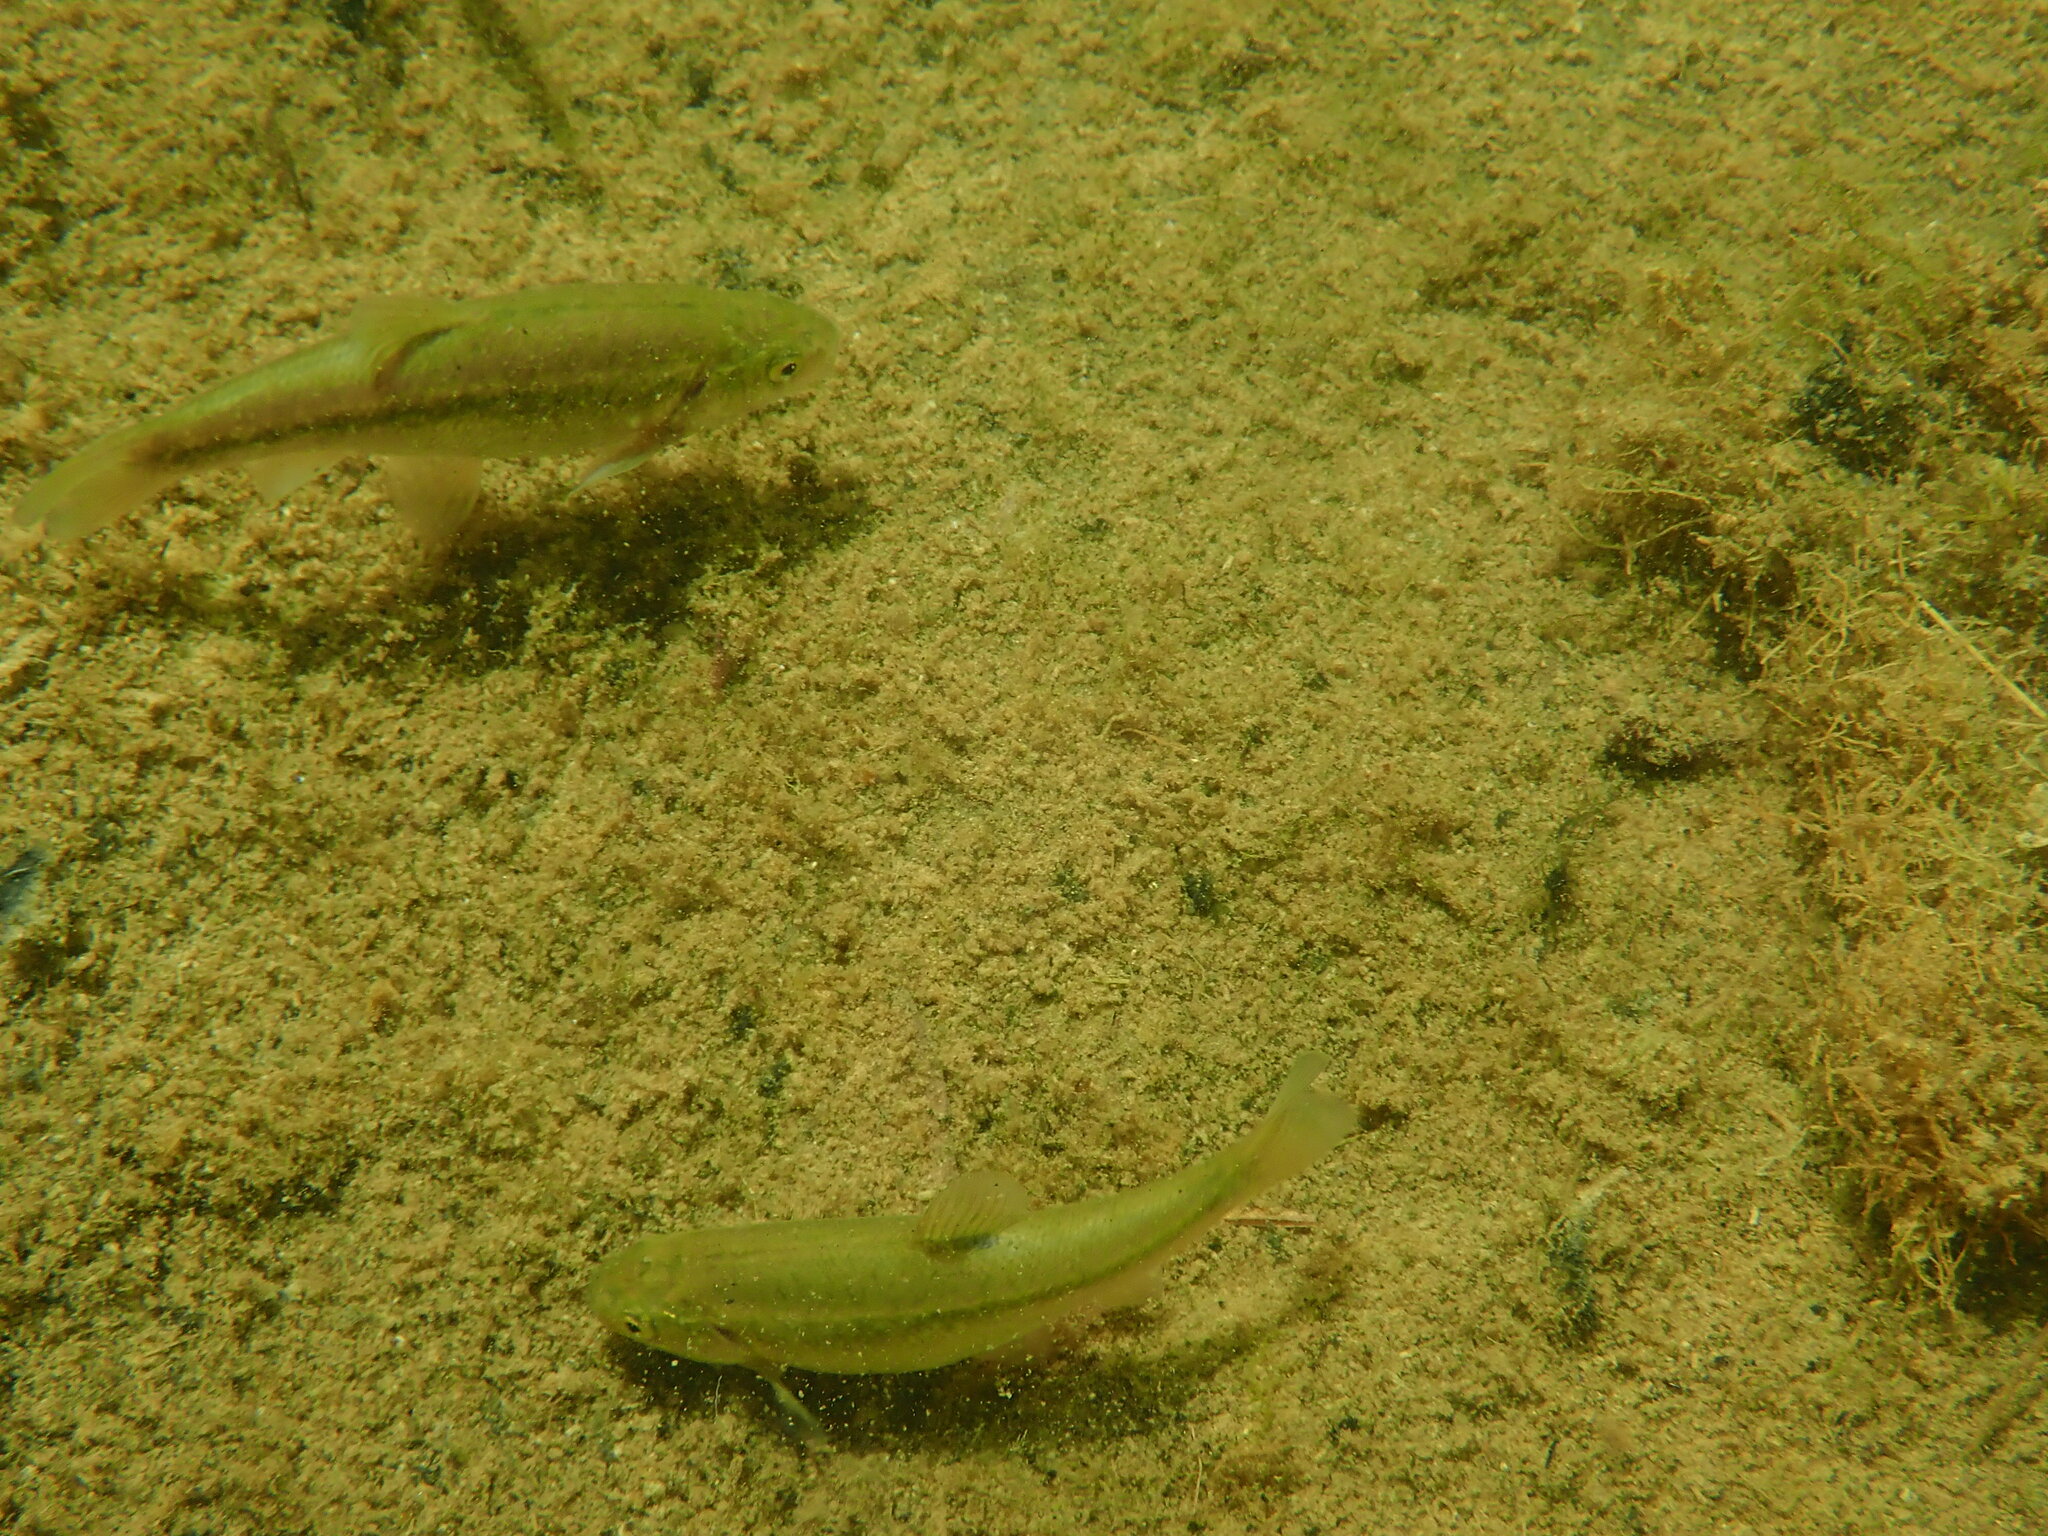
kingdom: Animalia
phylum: Chordata
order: Cypriniformes
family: Cyprinidae
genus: Gila
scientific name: Gila orcuttii
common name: Arroyo chub
